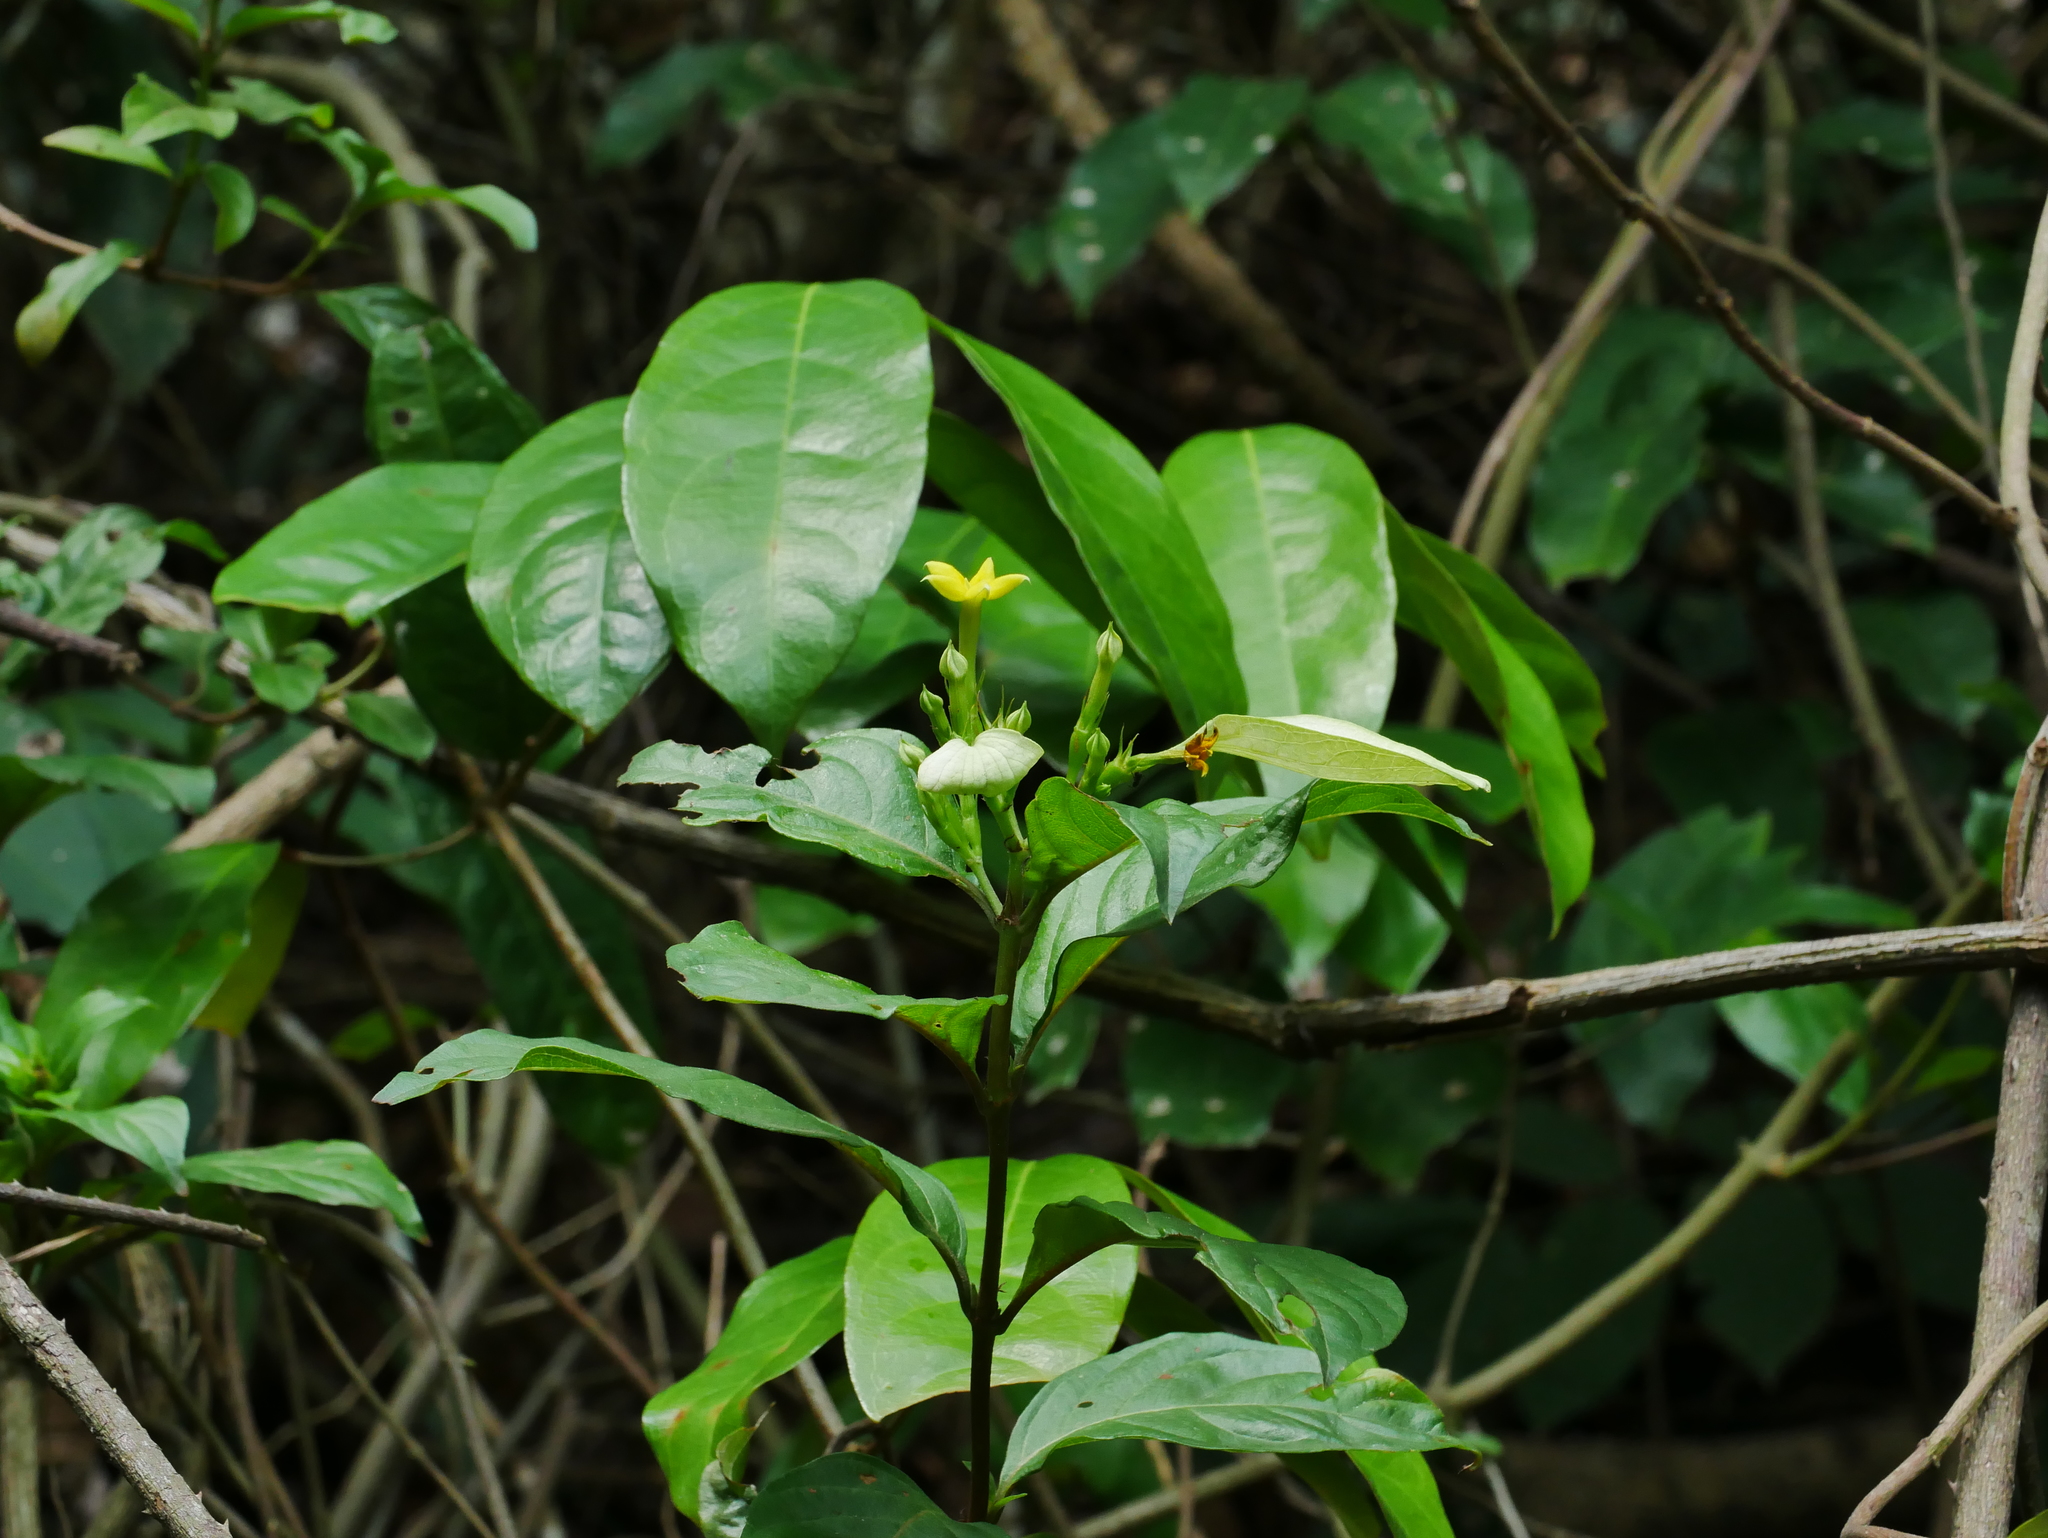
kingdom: Plantae
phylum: Tracheophyta
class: Magnoliopsida
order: Gentianales
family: Rubiaceae
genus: Mussaenda
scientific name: Mussaenda formosana
